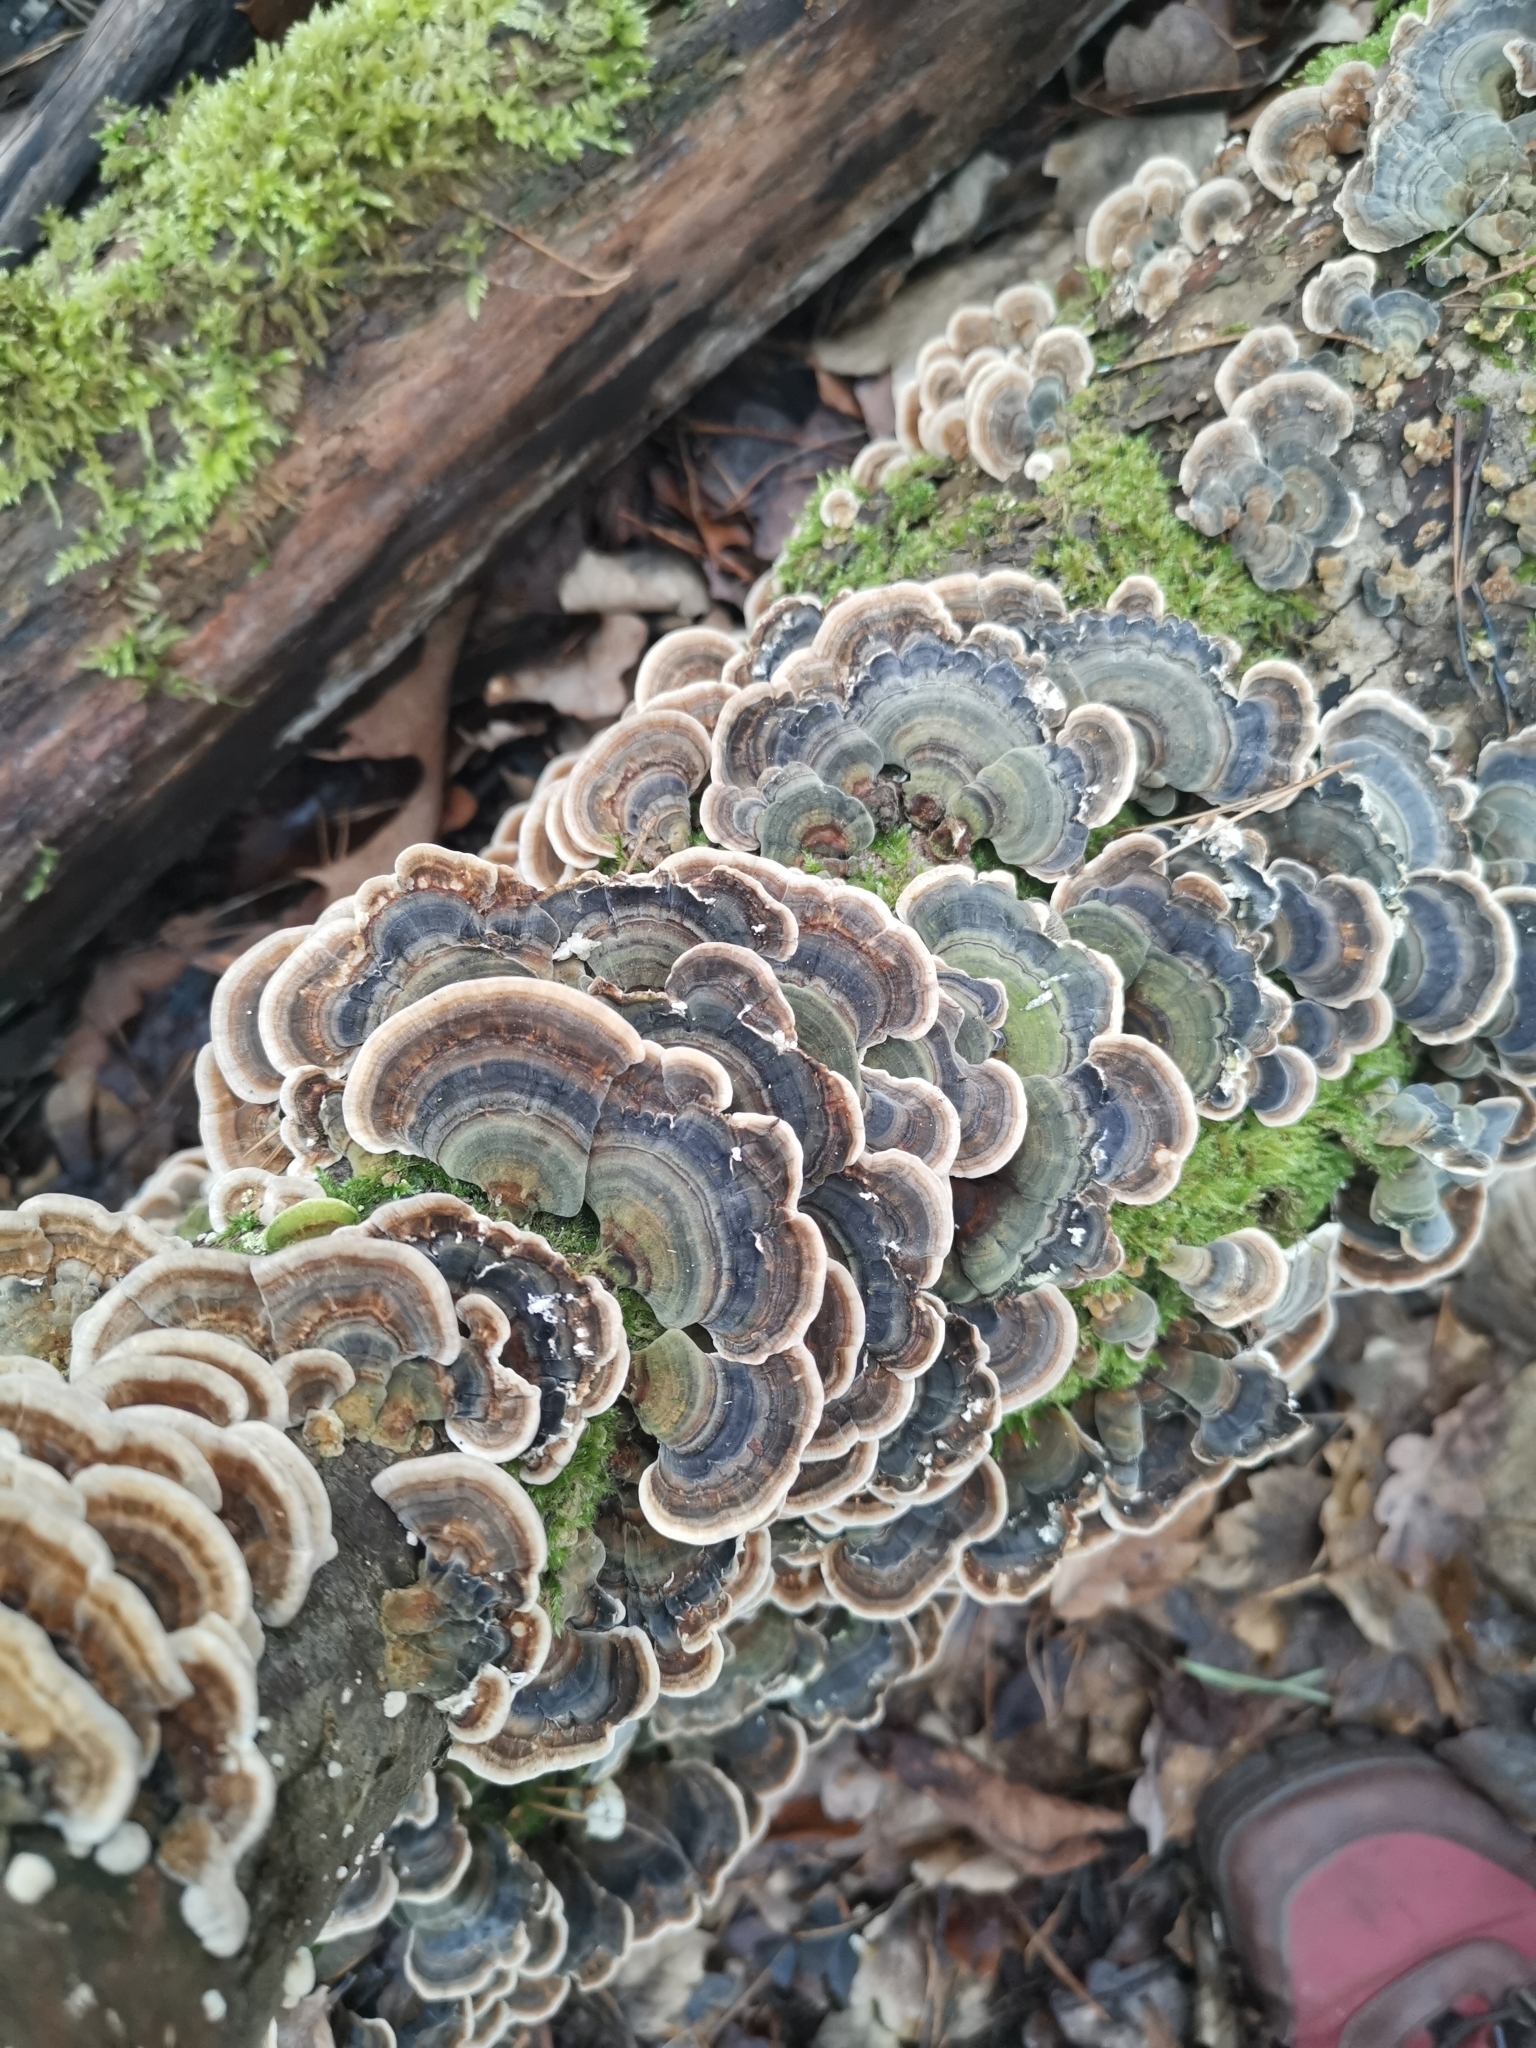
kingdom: Fungi
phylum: Basidiomycota
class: Agaricomycetes
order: Polyporales
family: Polyporaceae
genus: Trametes
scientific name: Trametes versicolor
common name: Turkeytail
